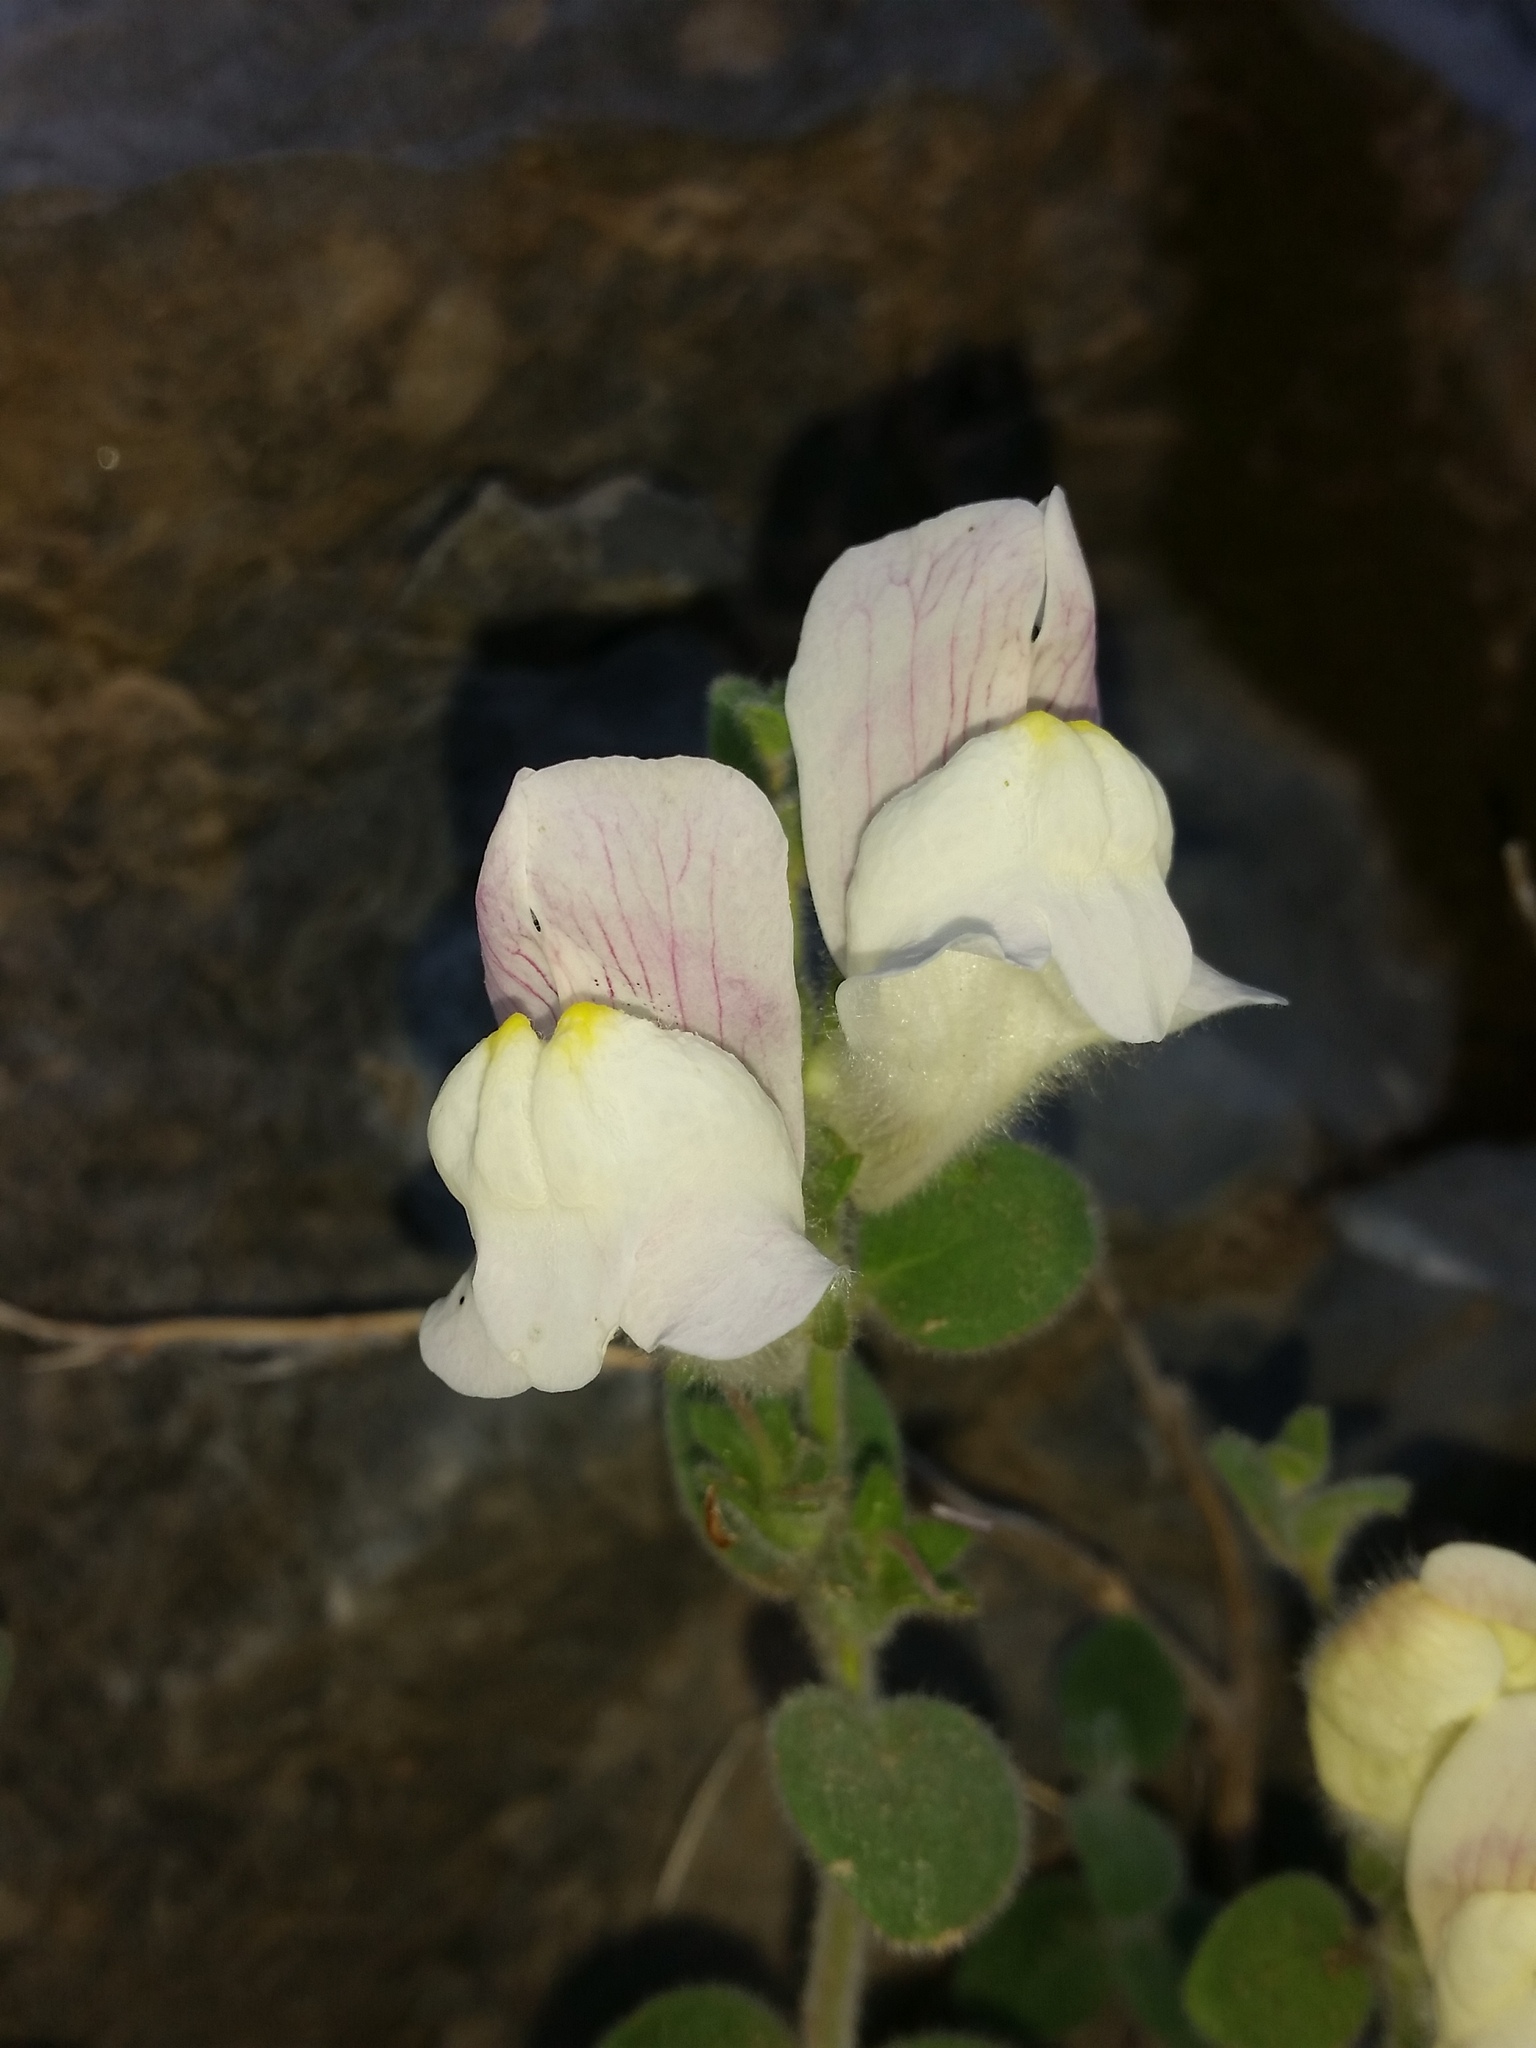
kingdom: Plantae
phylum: Tracheophyta
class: Magnoliopsida
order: Lamiales
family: Plantaginaceae
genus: Antirrhinum
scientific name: Antirrhinum molle
